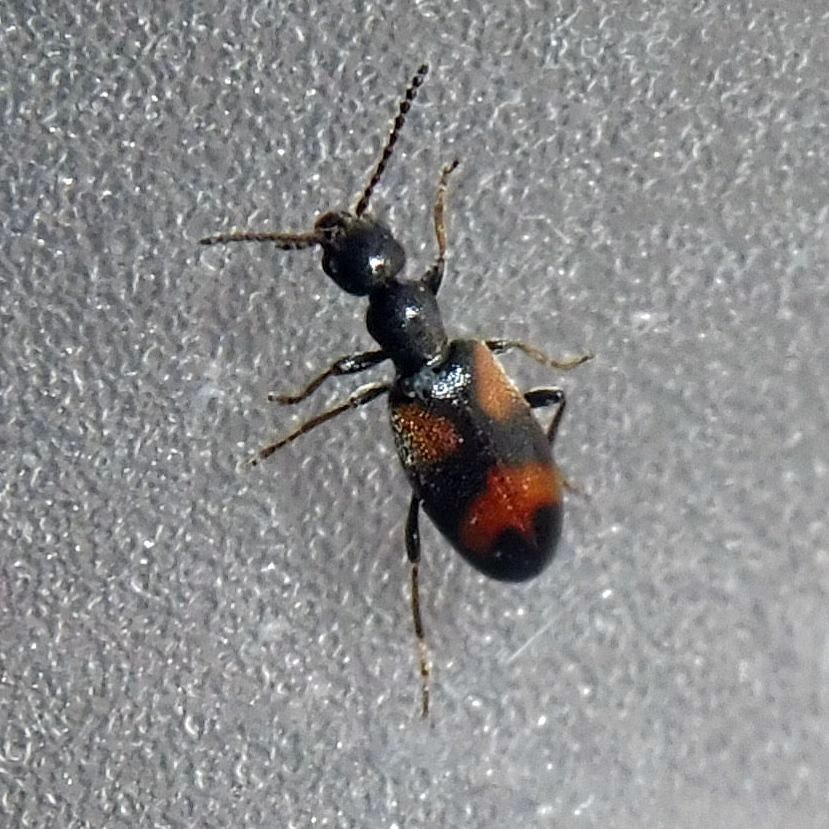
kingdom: Animalia
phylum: Arthropoda
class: Insecta
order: Coleoptera
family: Anthicidae
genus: Anthicus
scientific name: Anthicus antherinus
